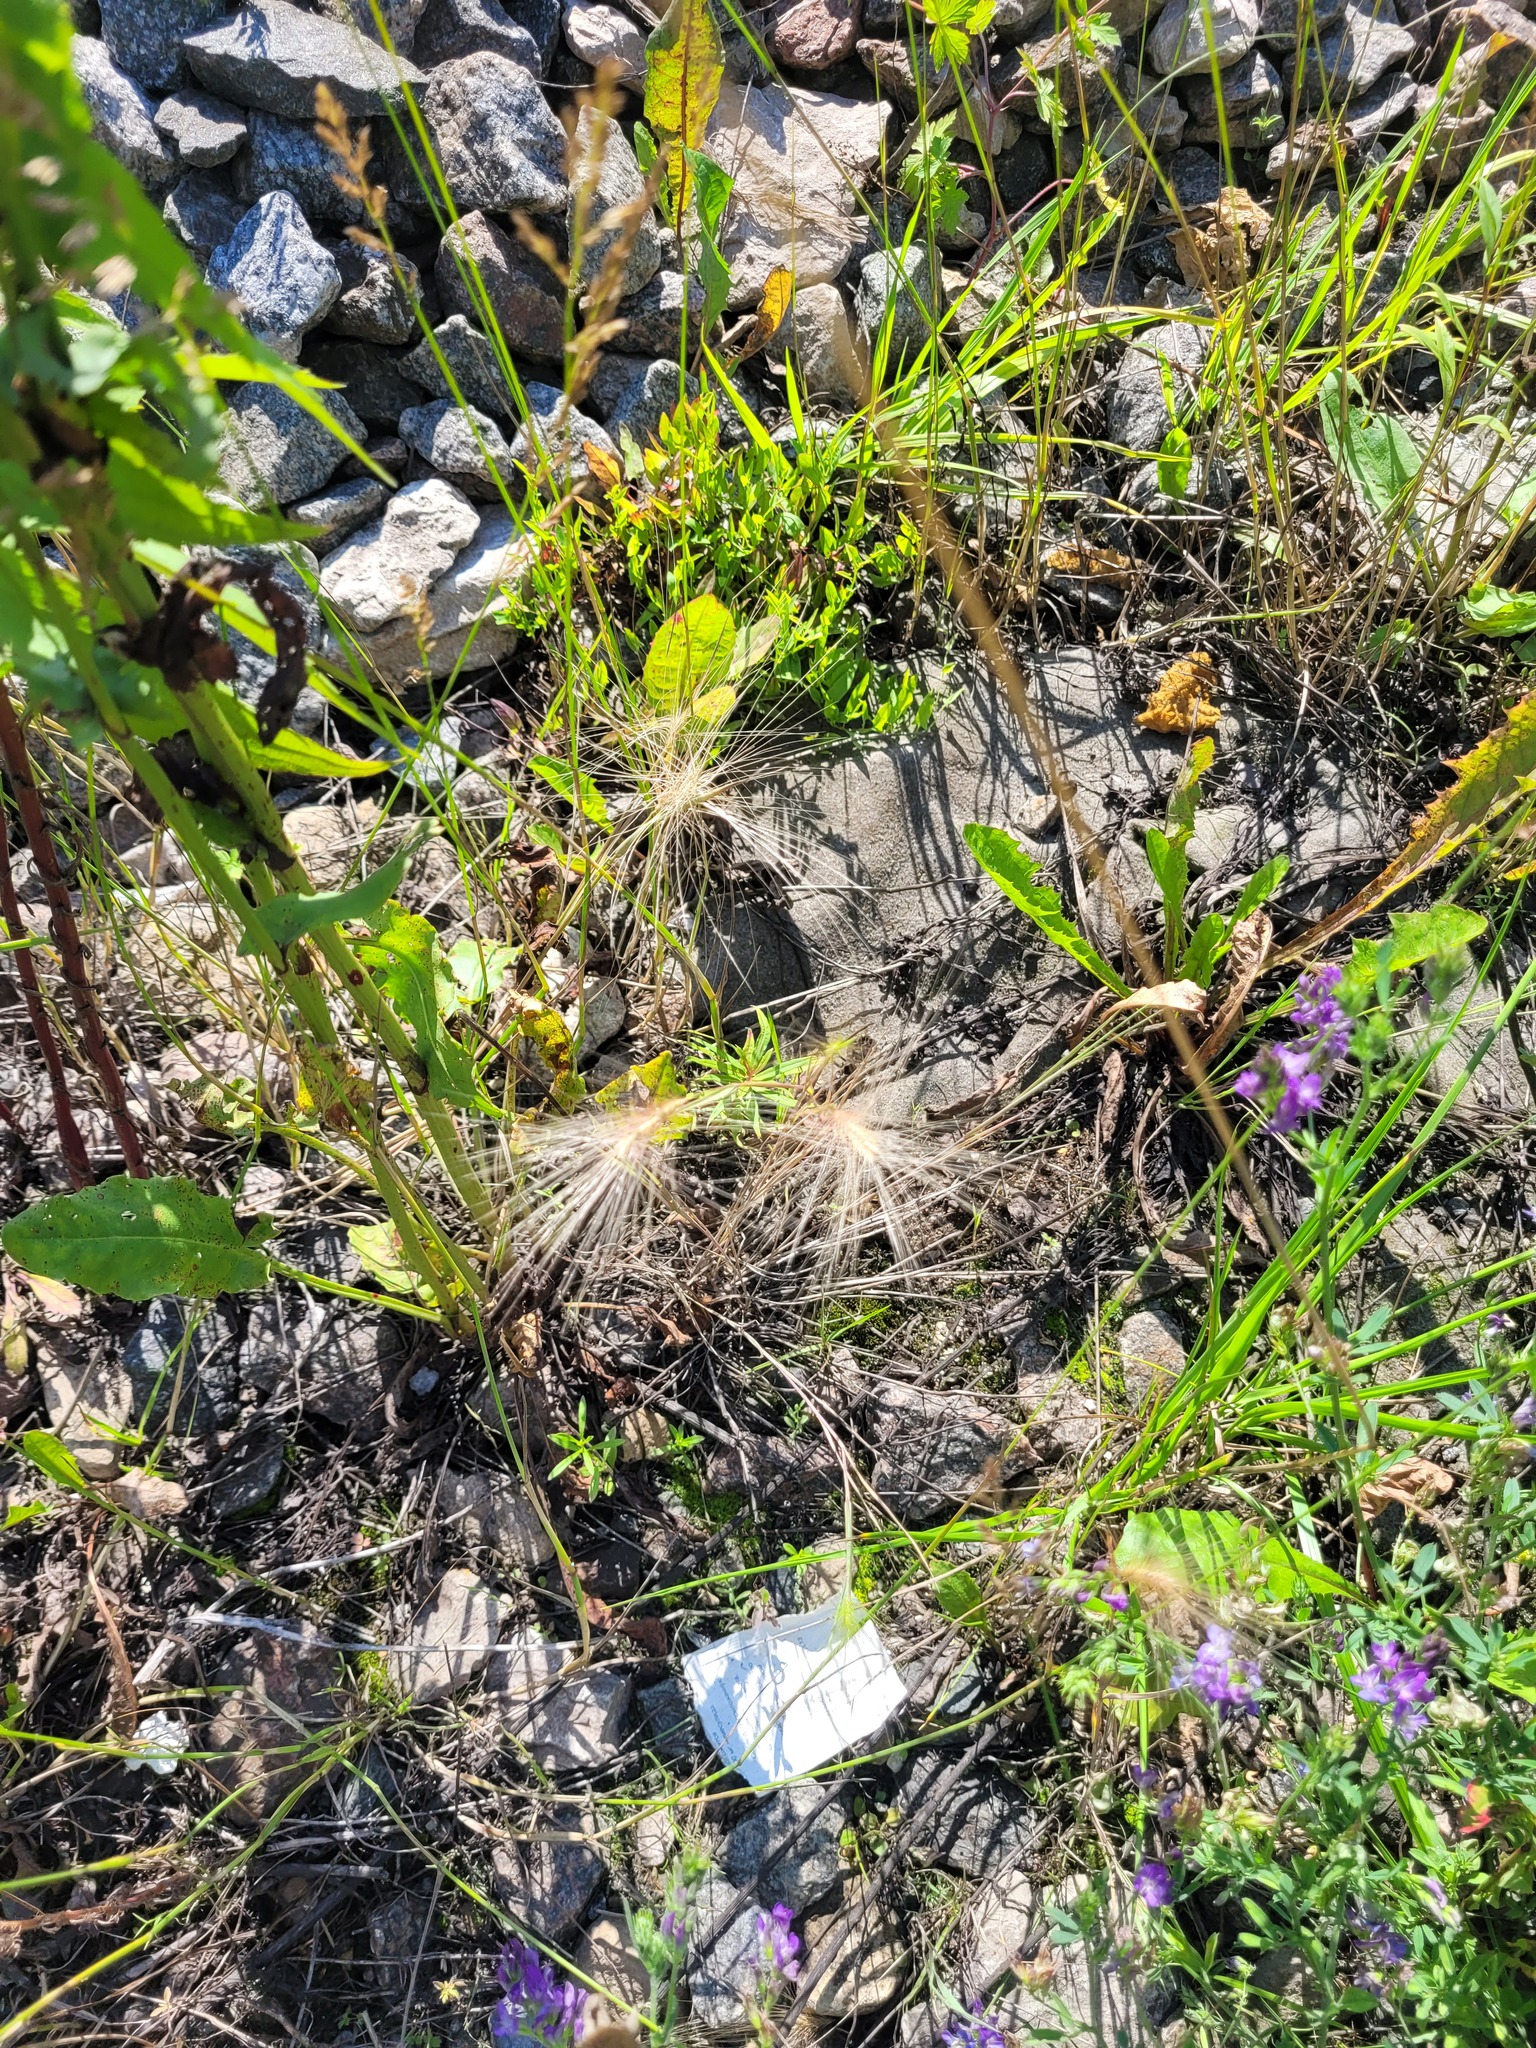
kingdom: Plantae
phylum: Tracheophyta
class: Liliopsida
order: Poales
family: Poaceae
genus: Hordeum
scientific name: Hordeum jubatum
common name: Foxtail barley
